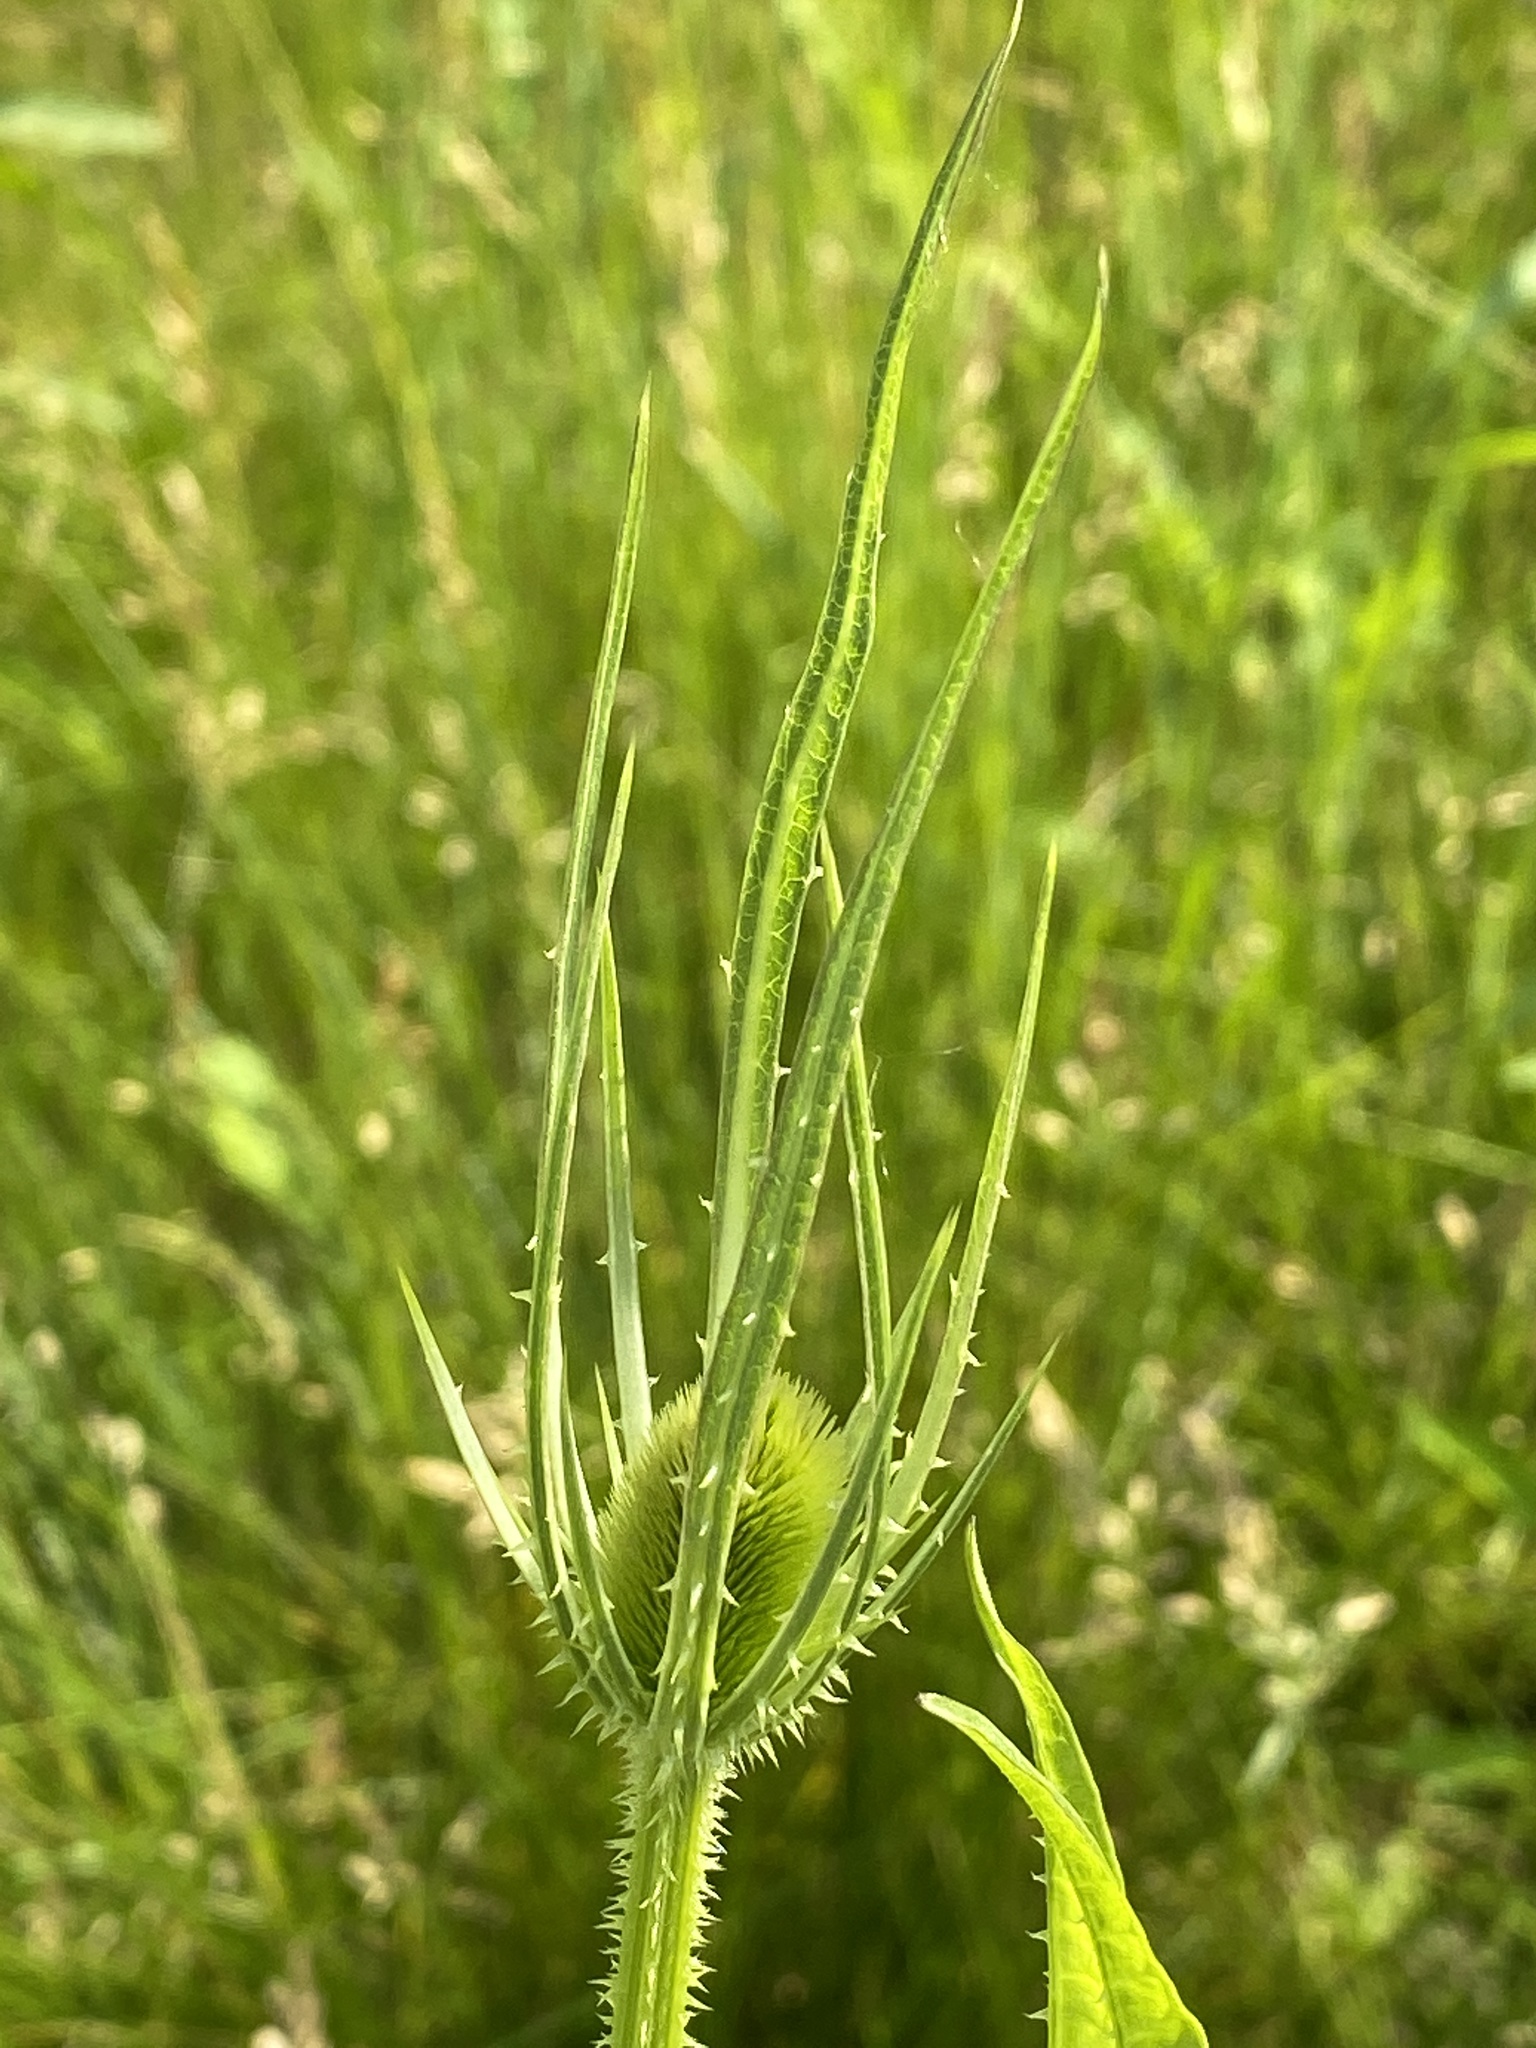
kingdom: Plantae
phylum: Tracheophyta
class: Magnoliopsida
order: Dipsacales
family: Caprifoliaceae
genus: Dipsacus
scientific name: Dipsacus fullonum
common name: Teasel
